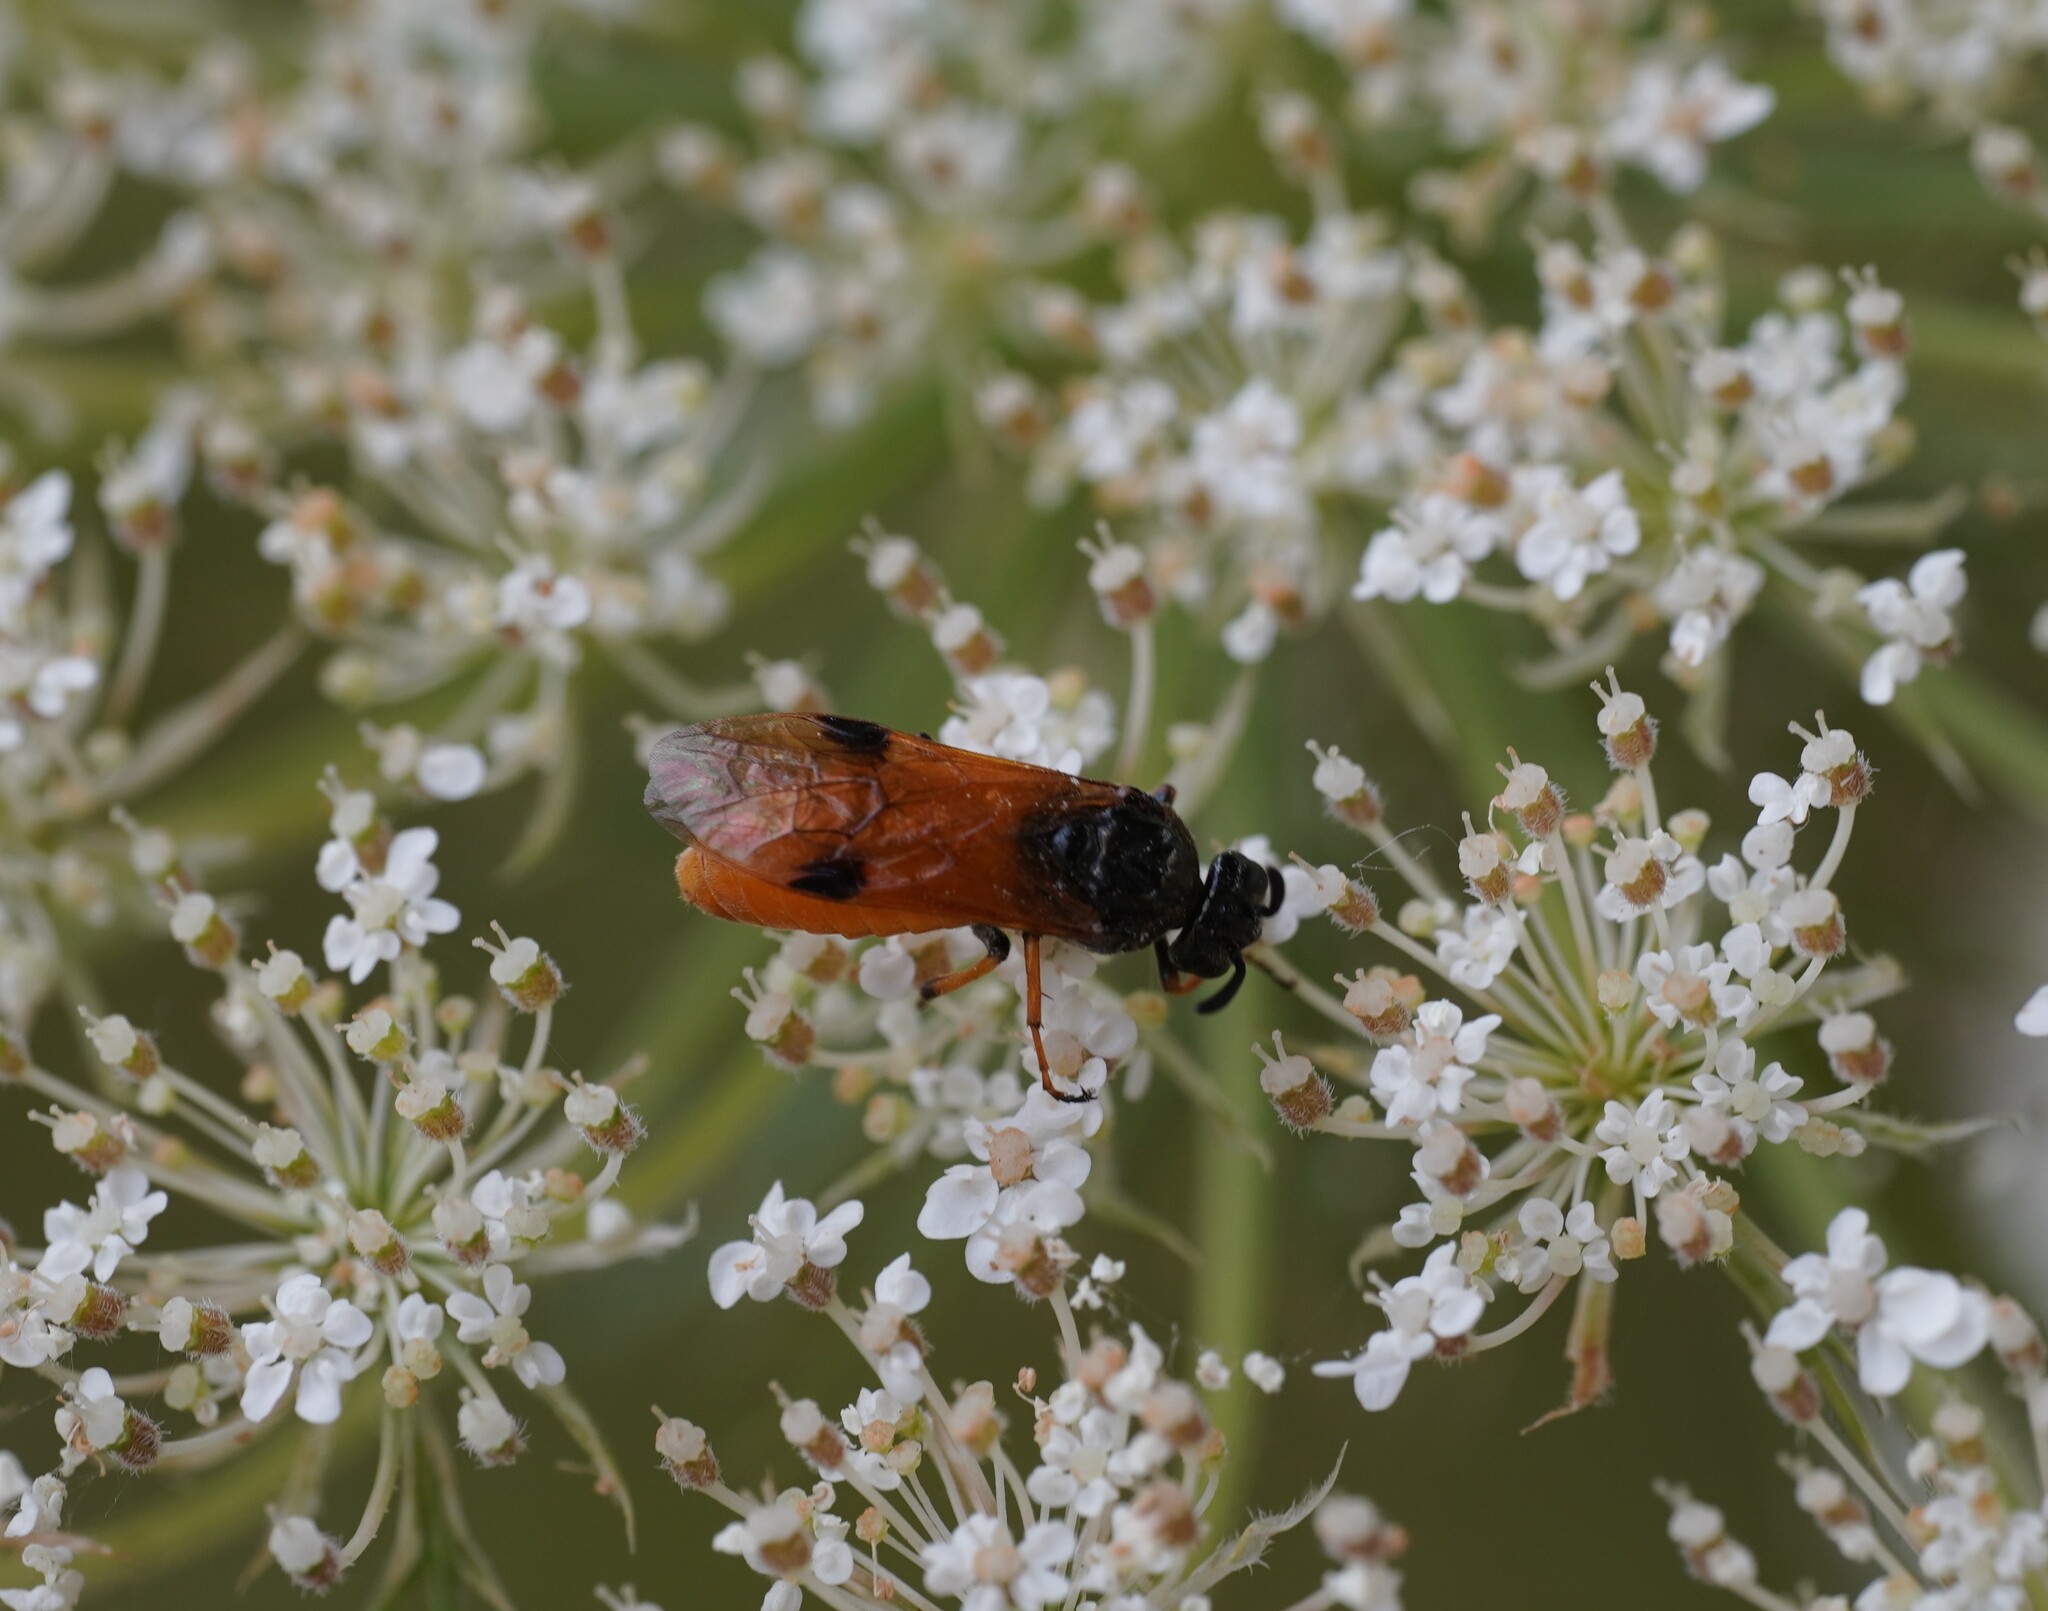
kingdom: Animalia
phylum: Arthropoda
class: Insecta
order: Hymenoptera
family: Argidae
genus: Arge
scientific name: Arge melanochra
